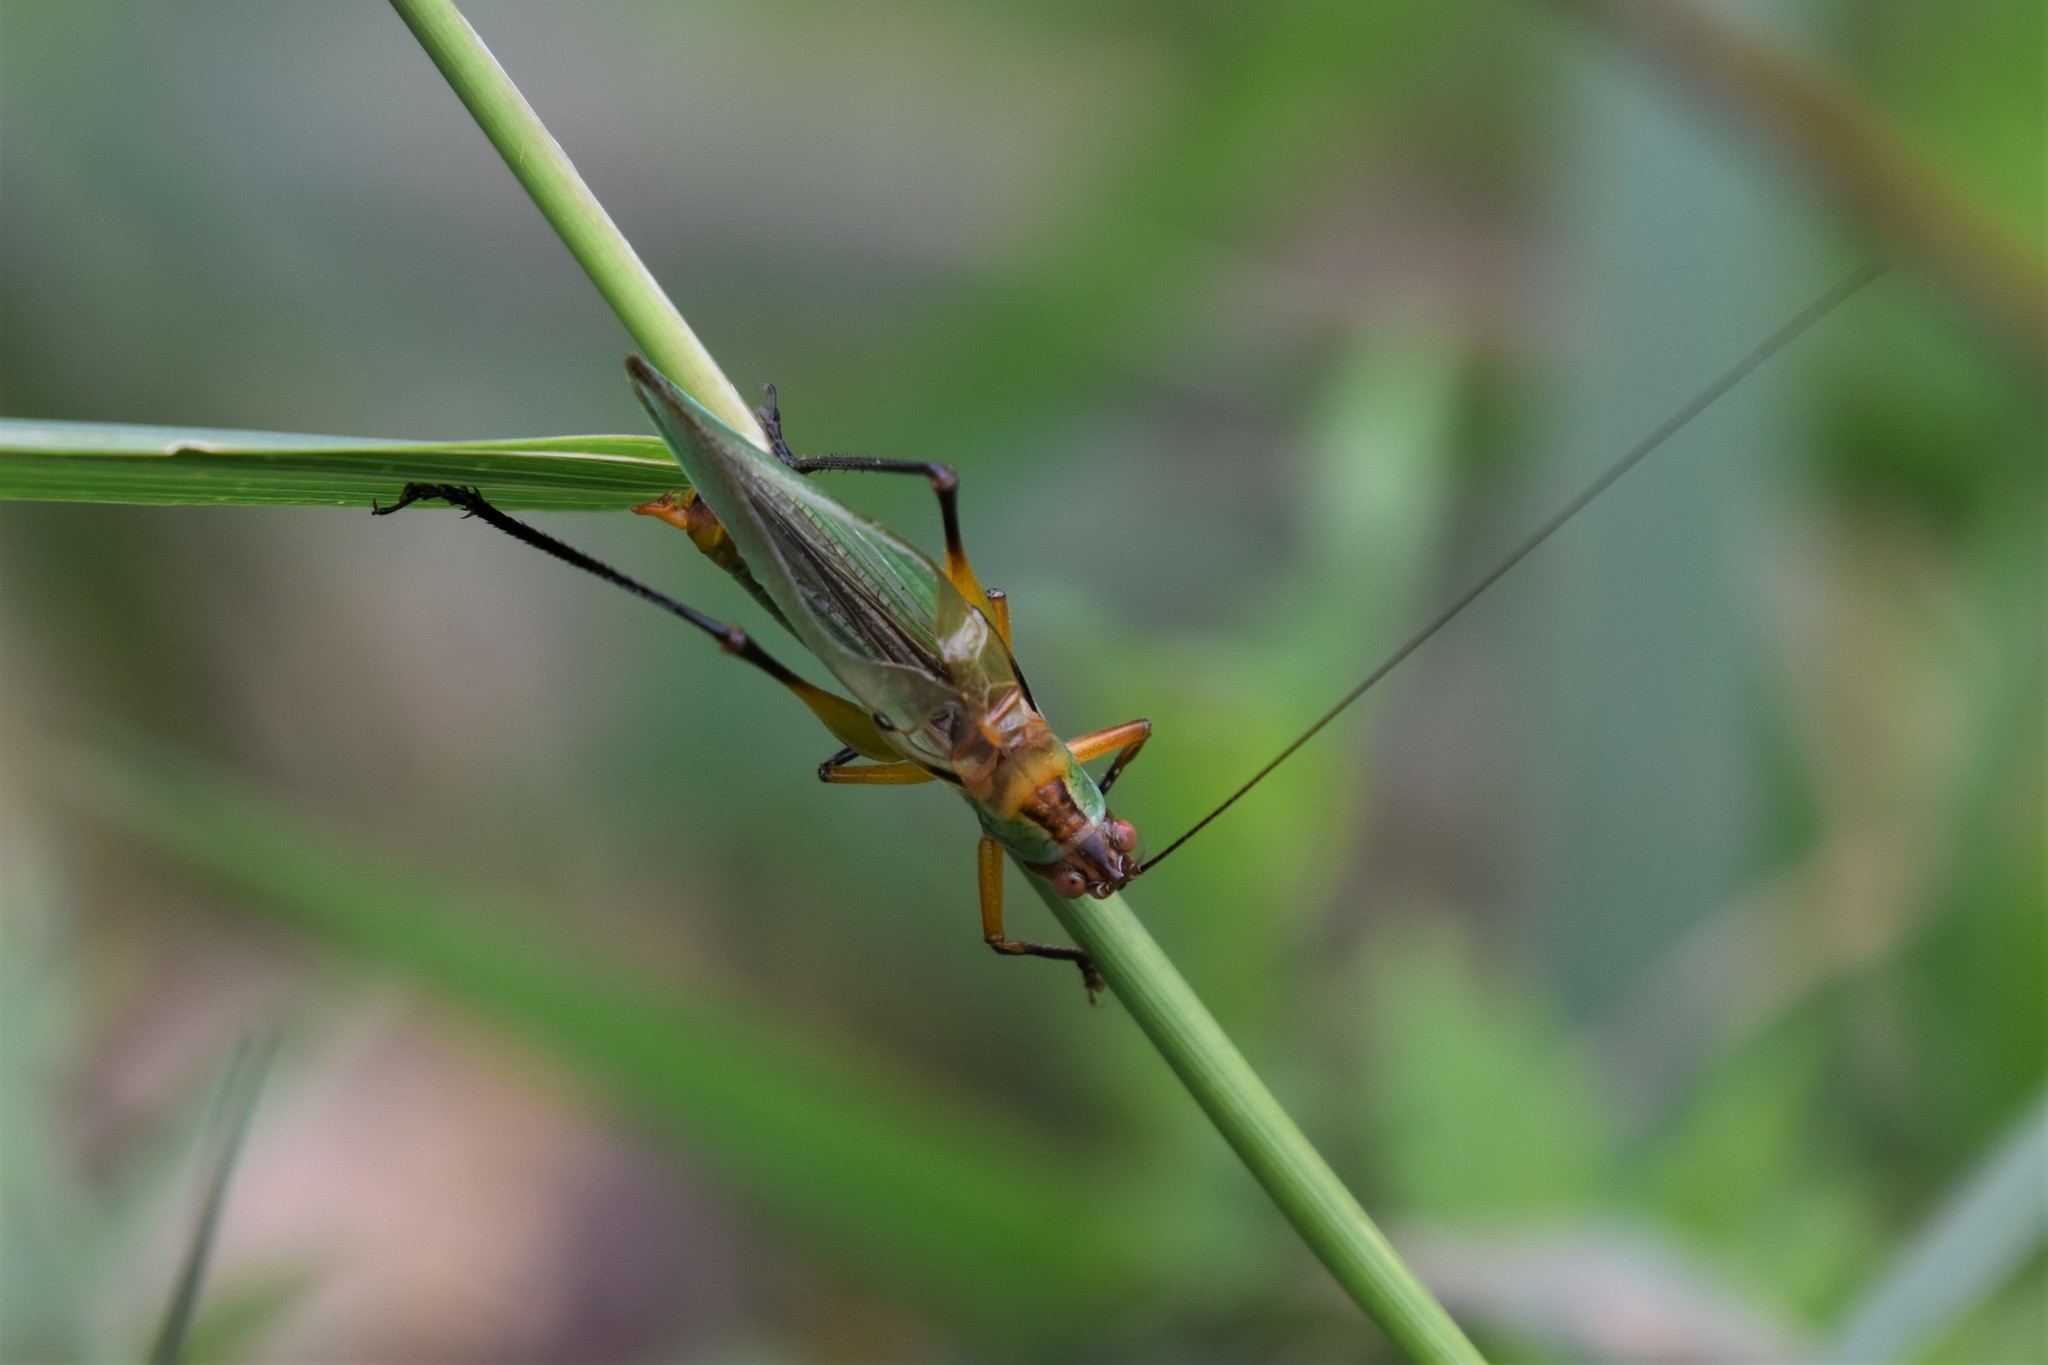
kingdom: Animalia
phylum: Arthropoda
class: Insecta
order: Orthoptera
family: Tettigoniidae
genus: Orchelimum
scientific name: Orchelimum nigripes
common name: Black-legged meadow katydid
